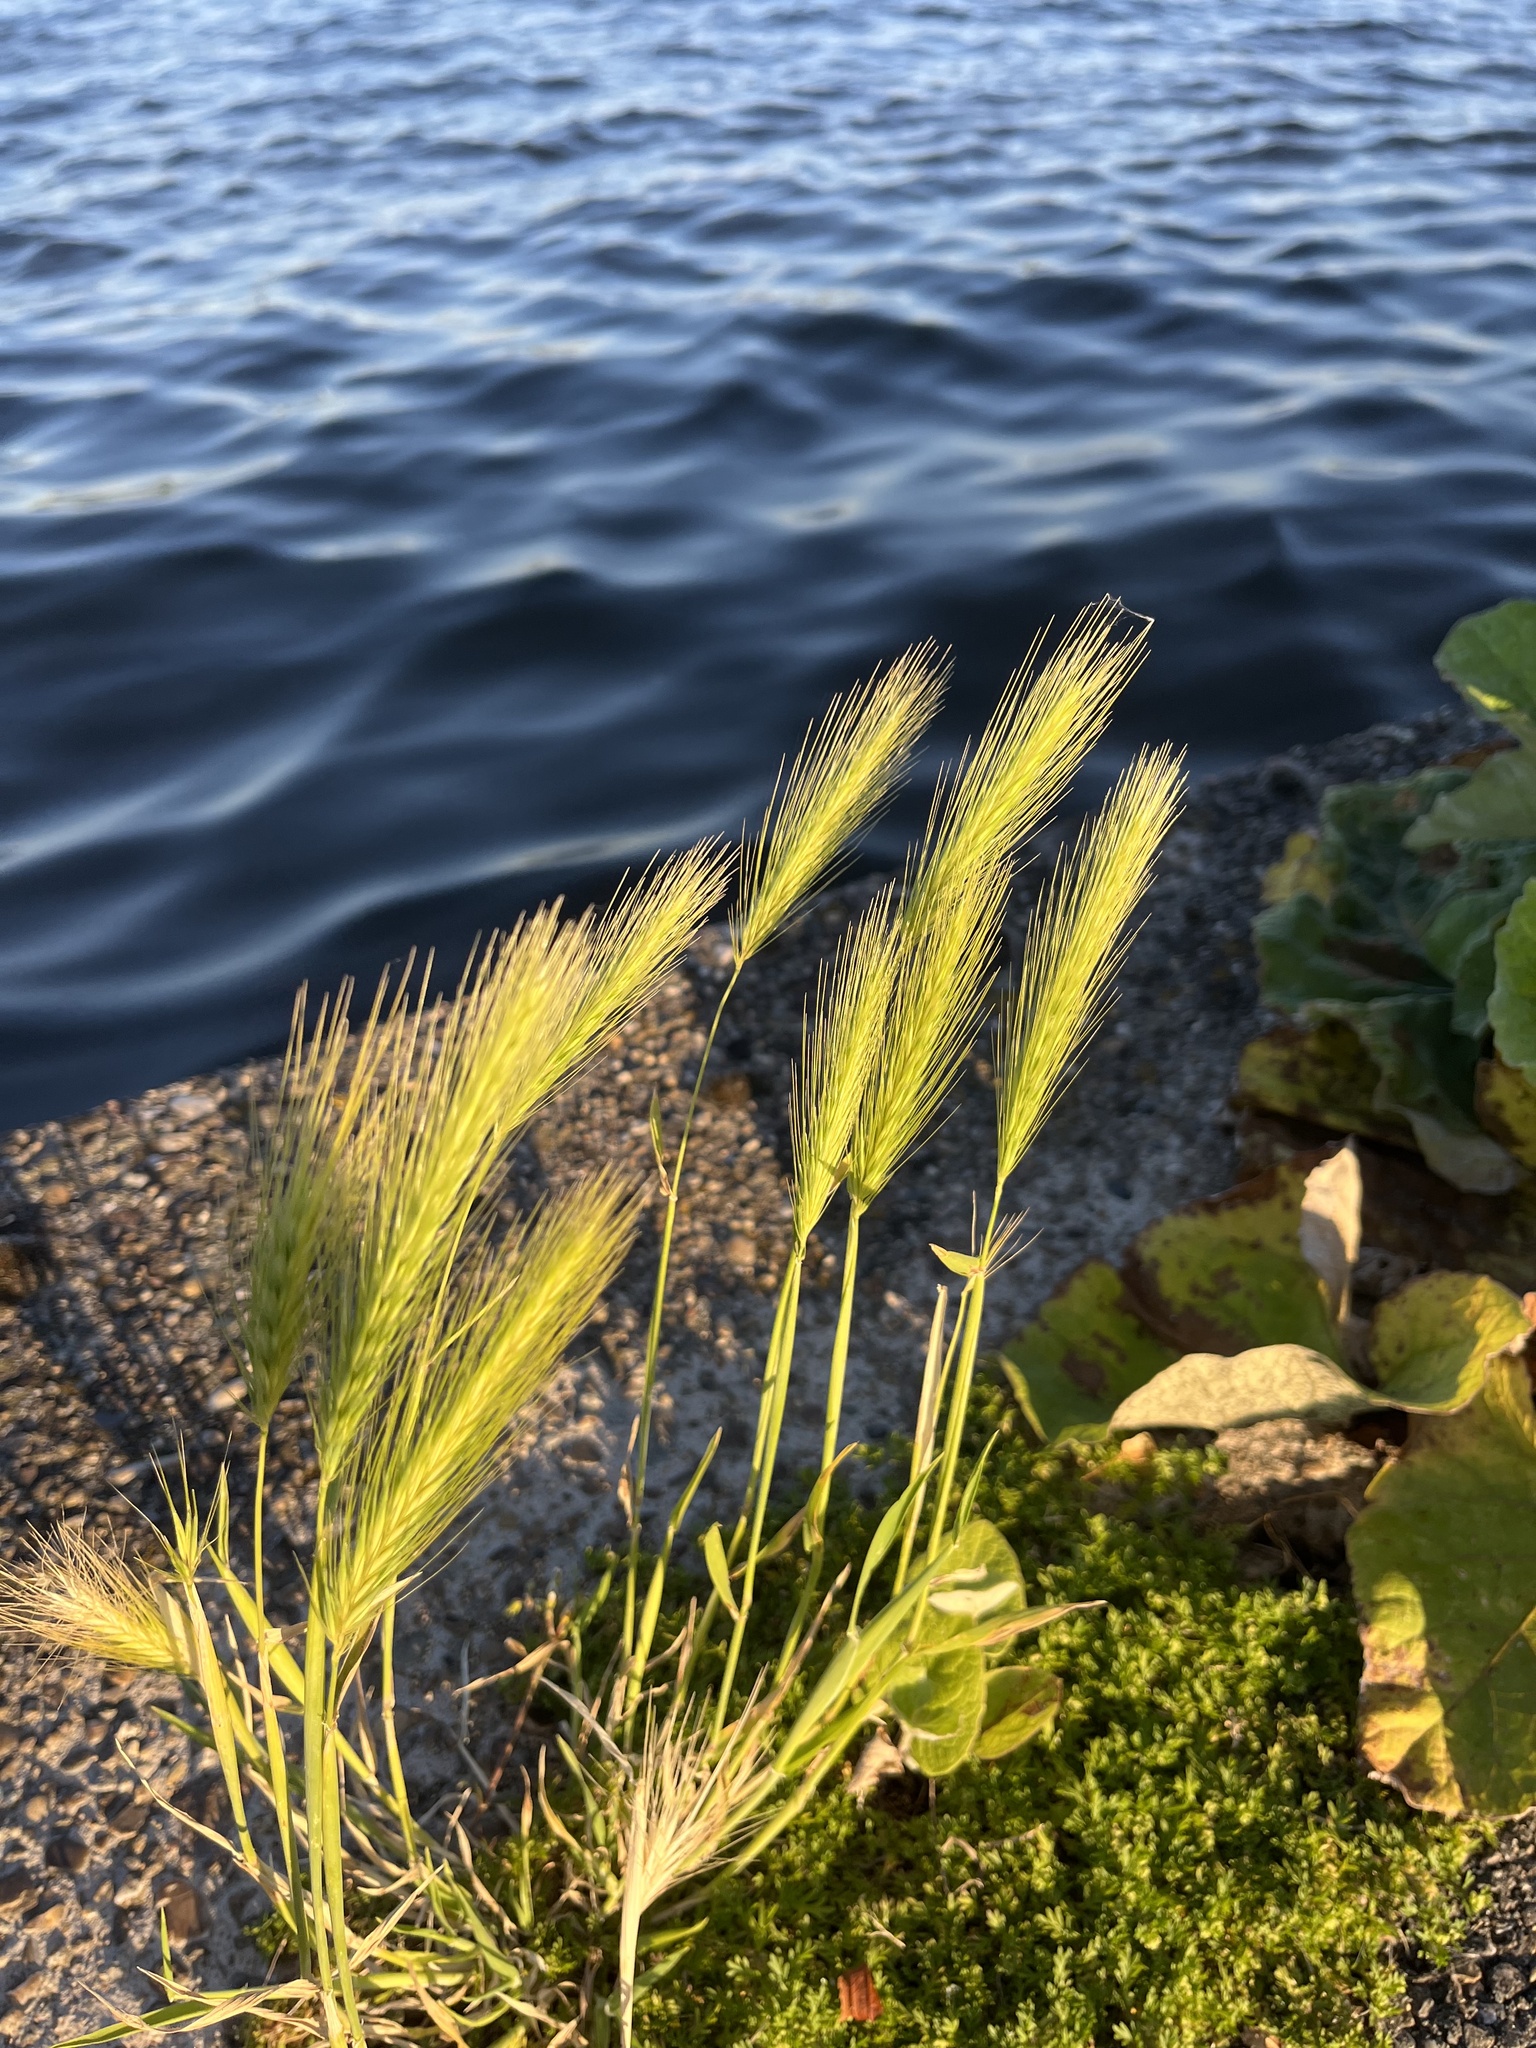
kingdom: Plantae
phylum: Tracheophyta
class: Liliopsida
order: Poales
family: Poaceae
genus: Hordeum
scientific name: Hordeum murinum
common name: Wall barley
